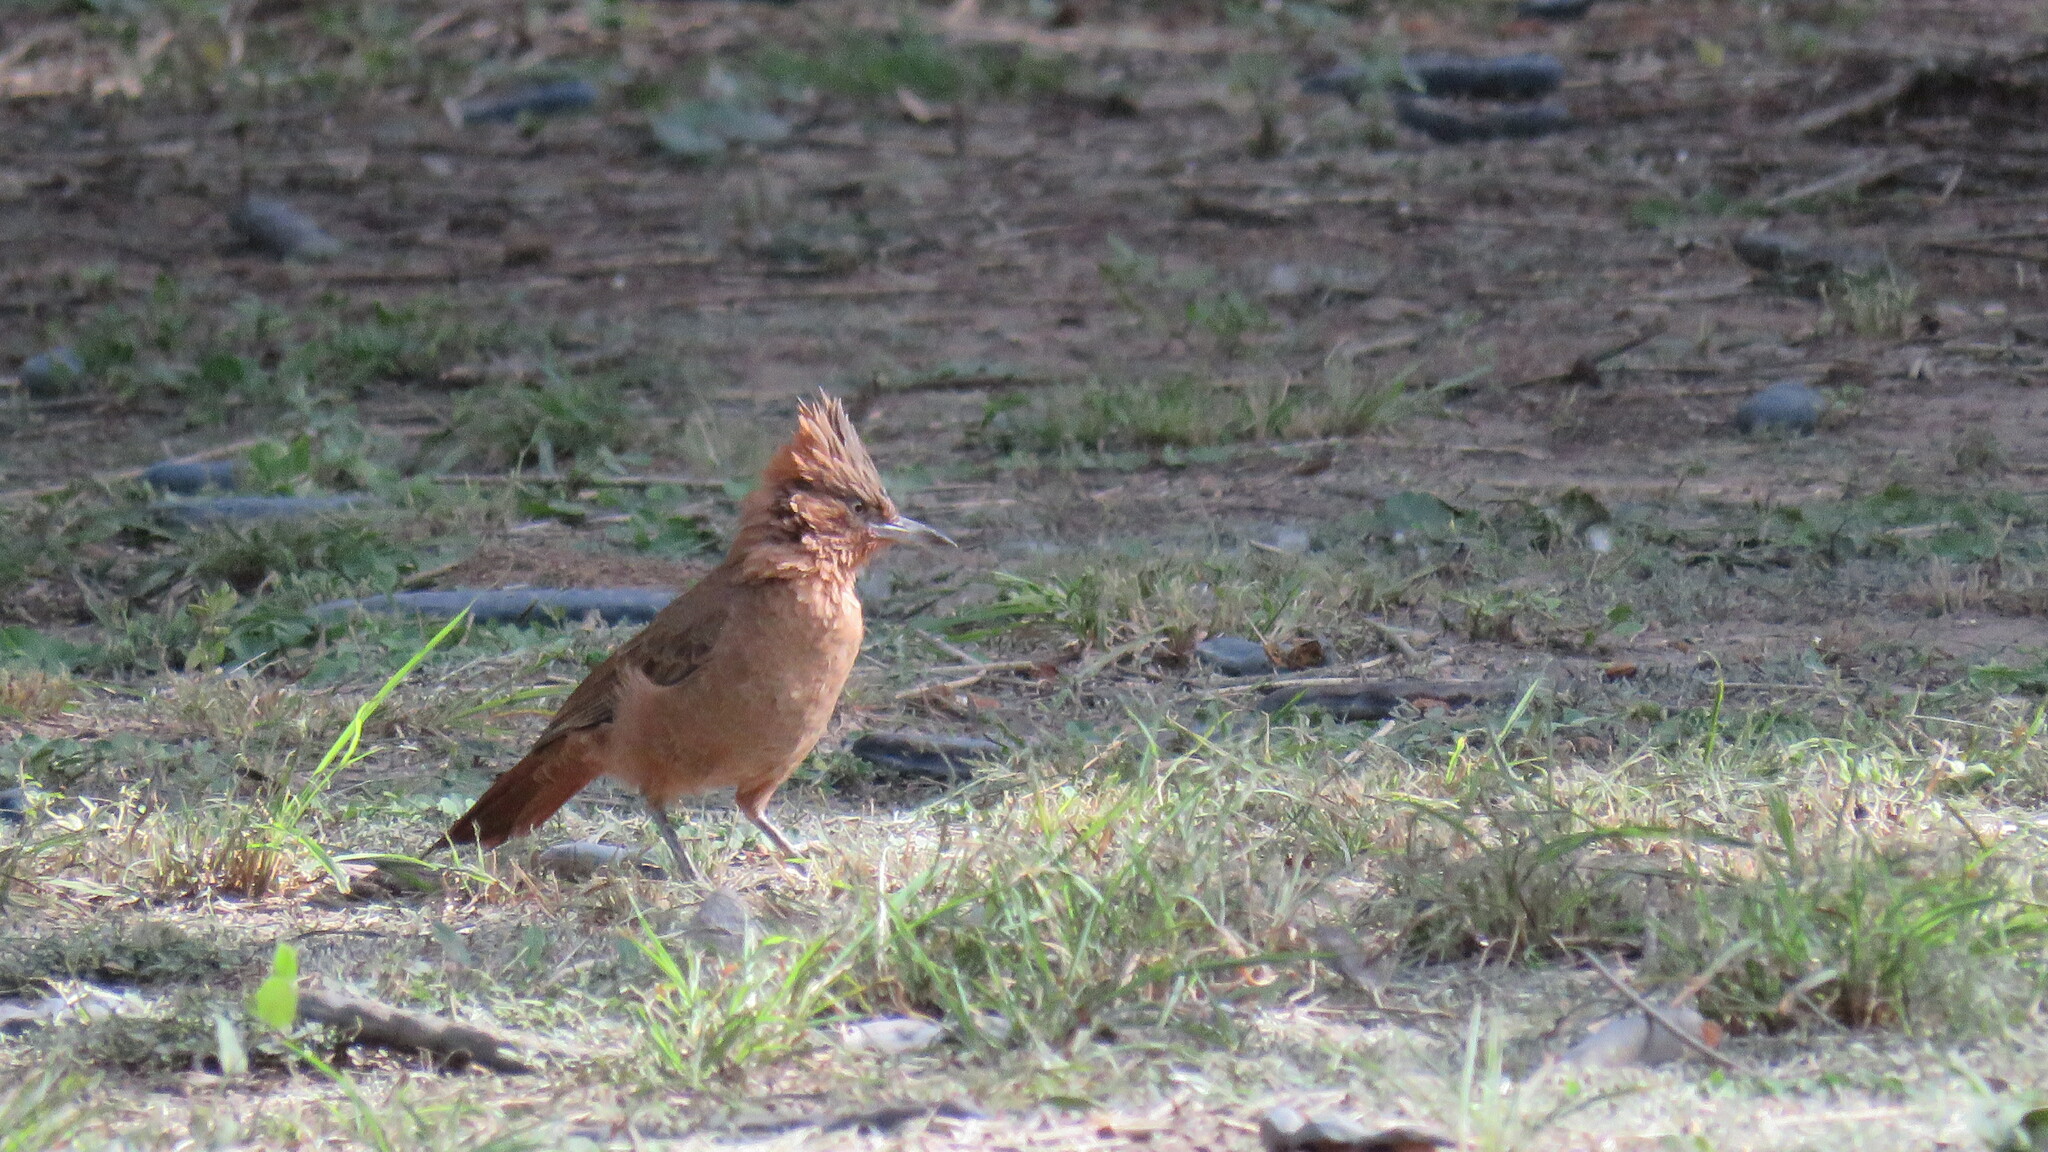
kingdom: Animalia
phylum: Chordata
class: Aves
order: Passeriformes
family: Furnariidae
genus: Pseudoseisura
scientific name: Pseudoseisura lophotes
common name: Brown cacholote
